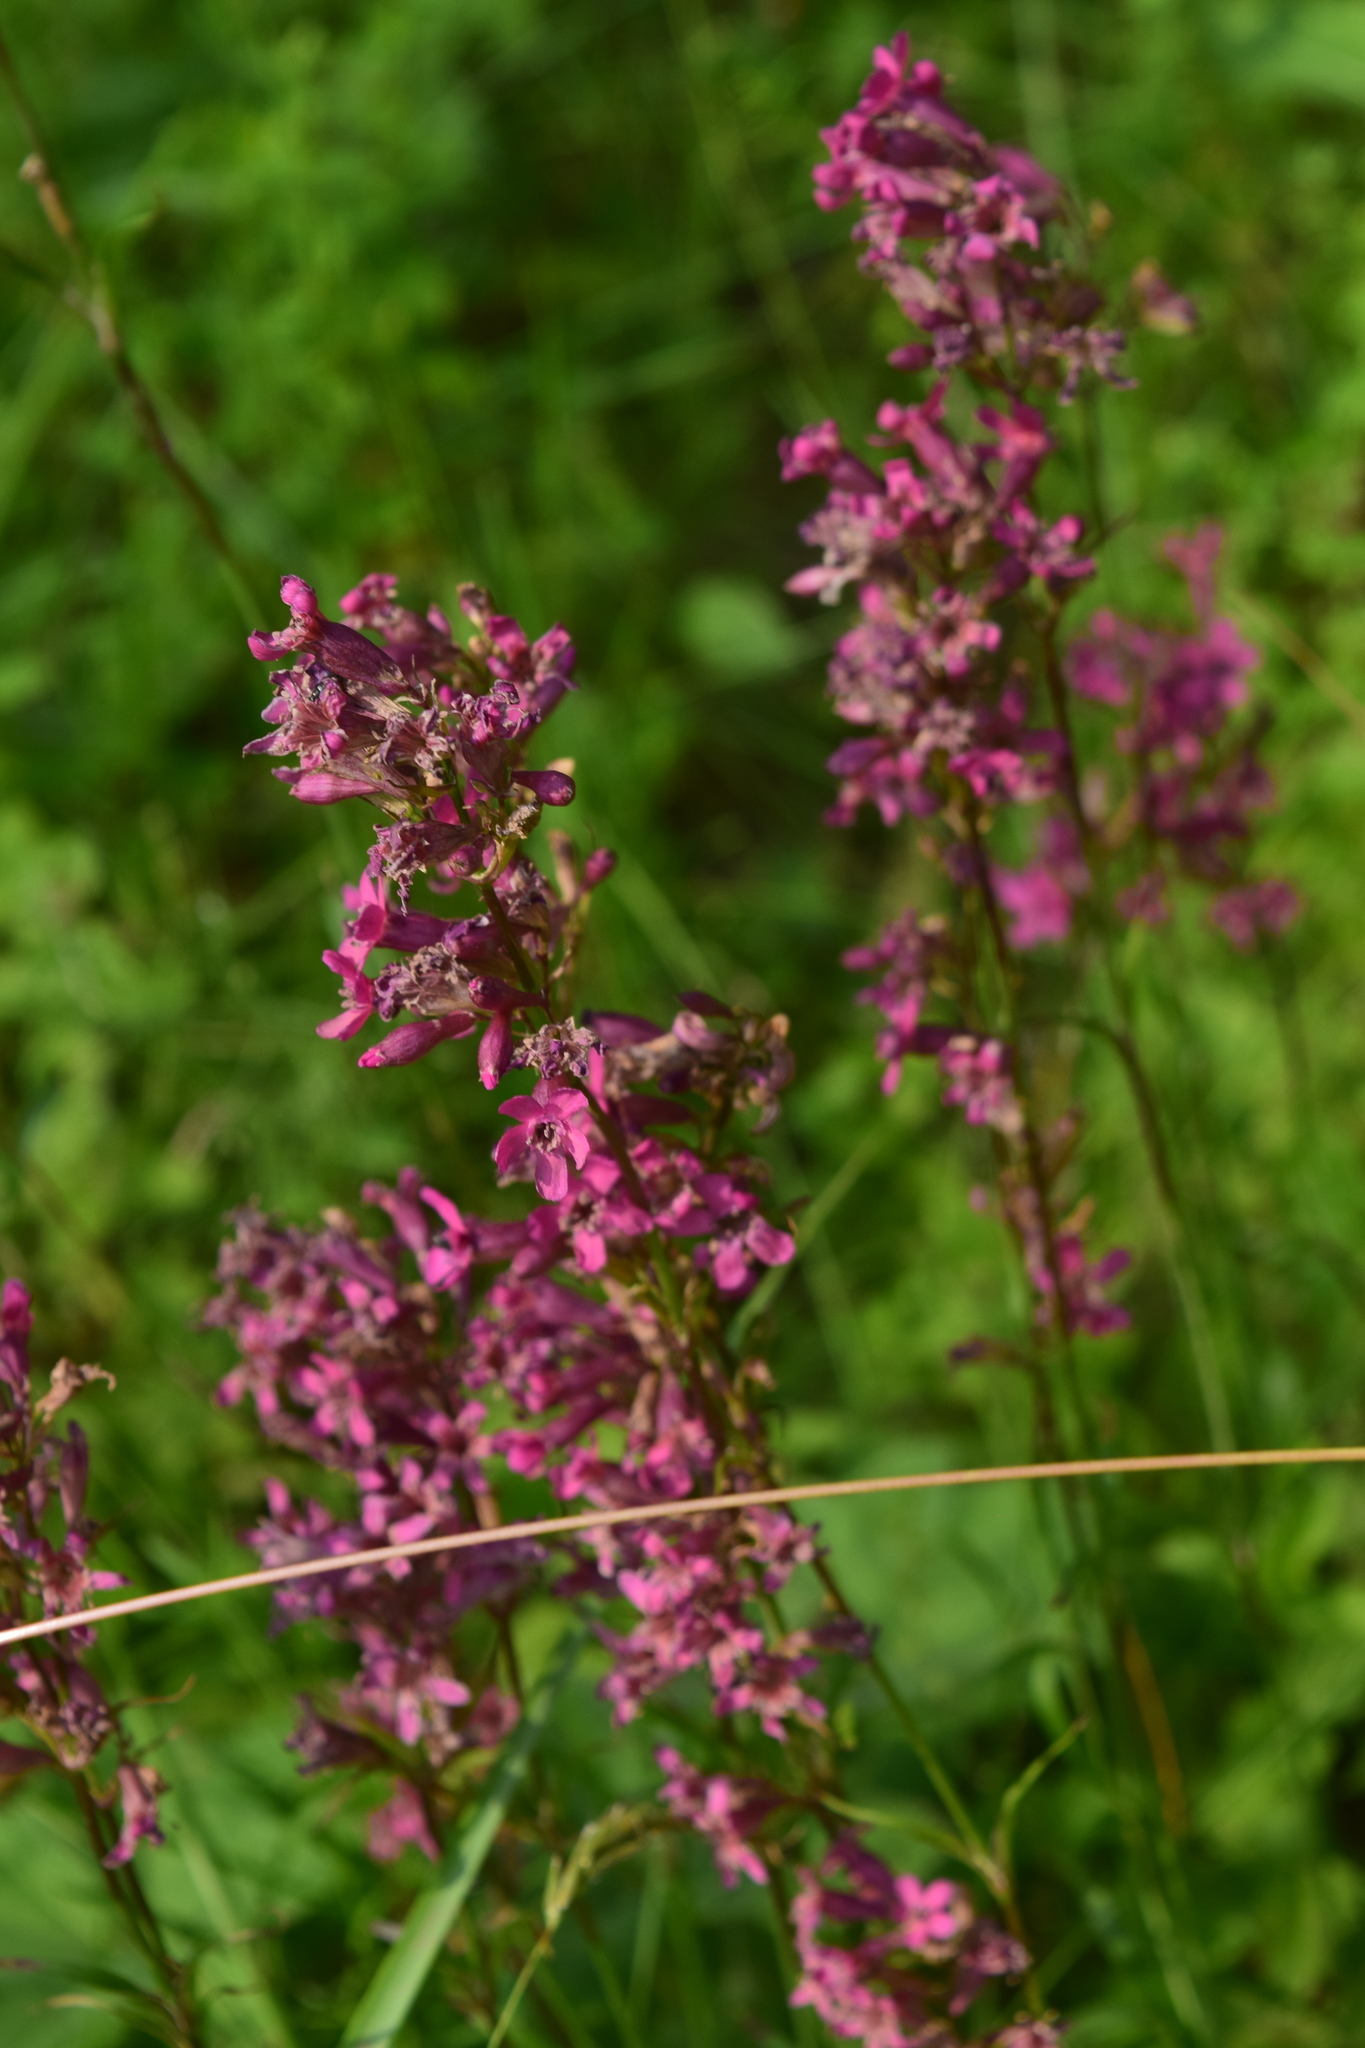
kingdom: Plantae
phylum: Tracheophyta
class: Magnoliopsida
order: Caryophyllales
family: Caryophyllaceae
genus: Viscaria
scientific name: Viscaria vulgaris
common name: Clammy campion
